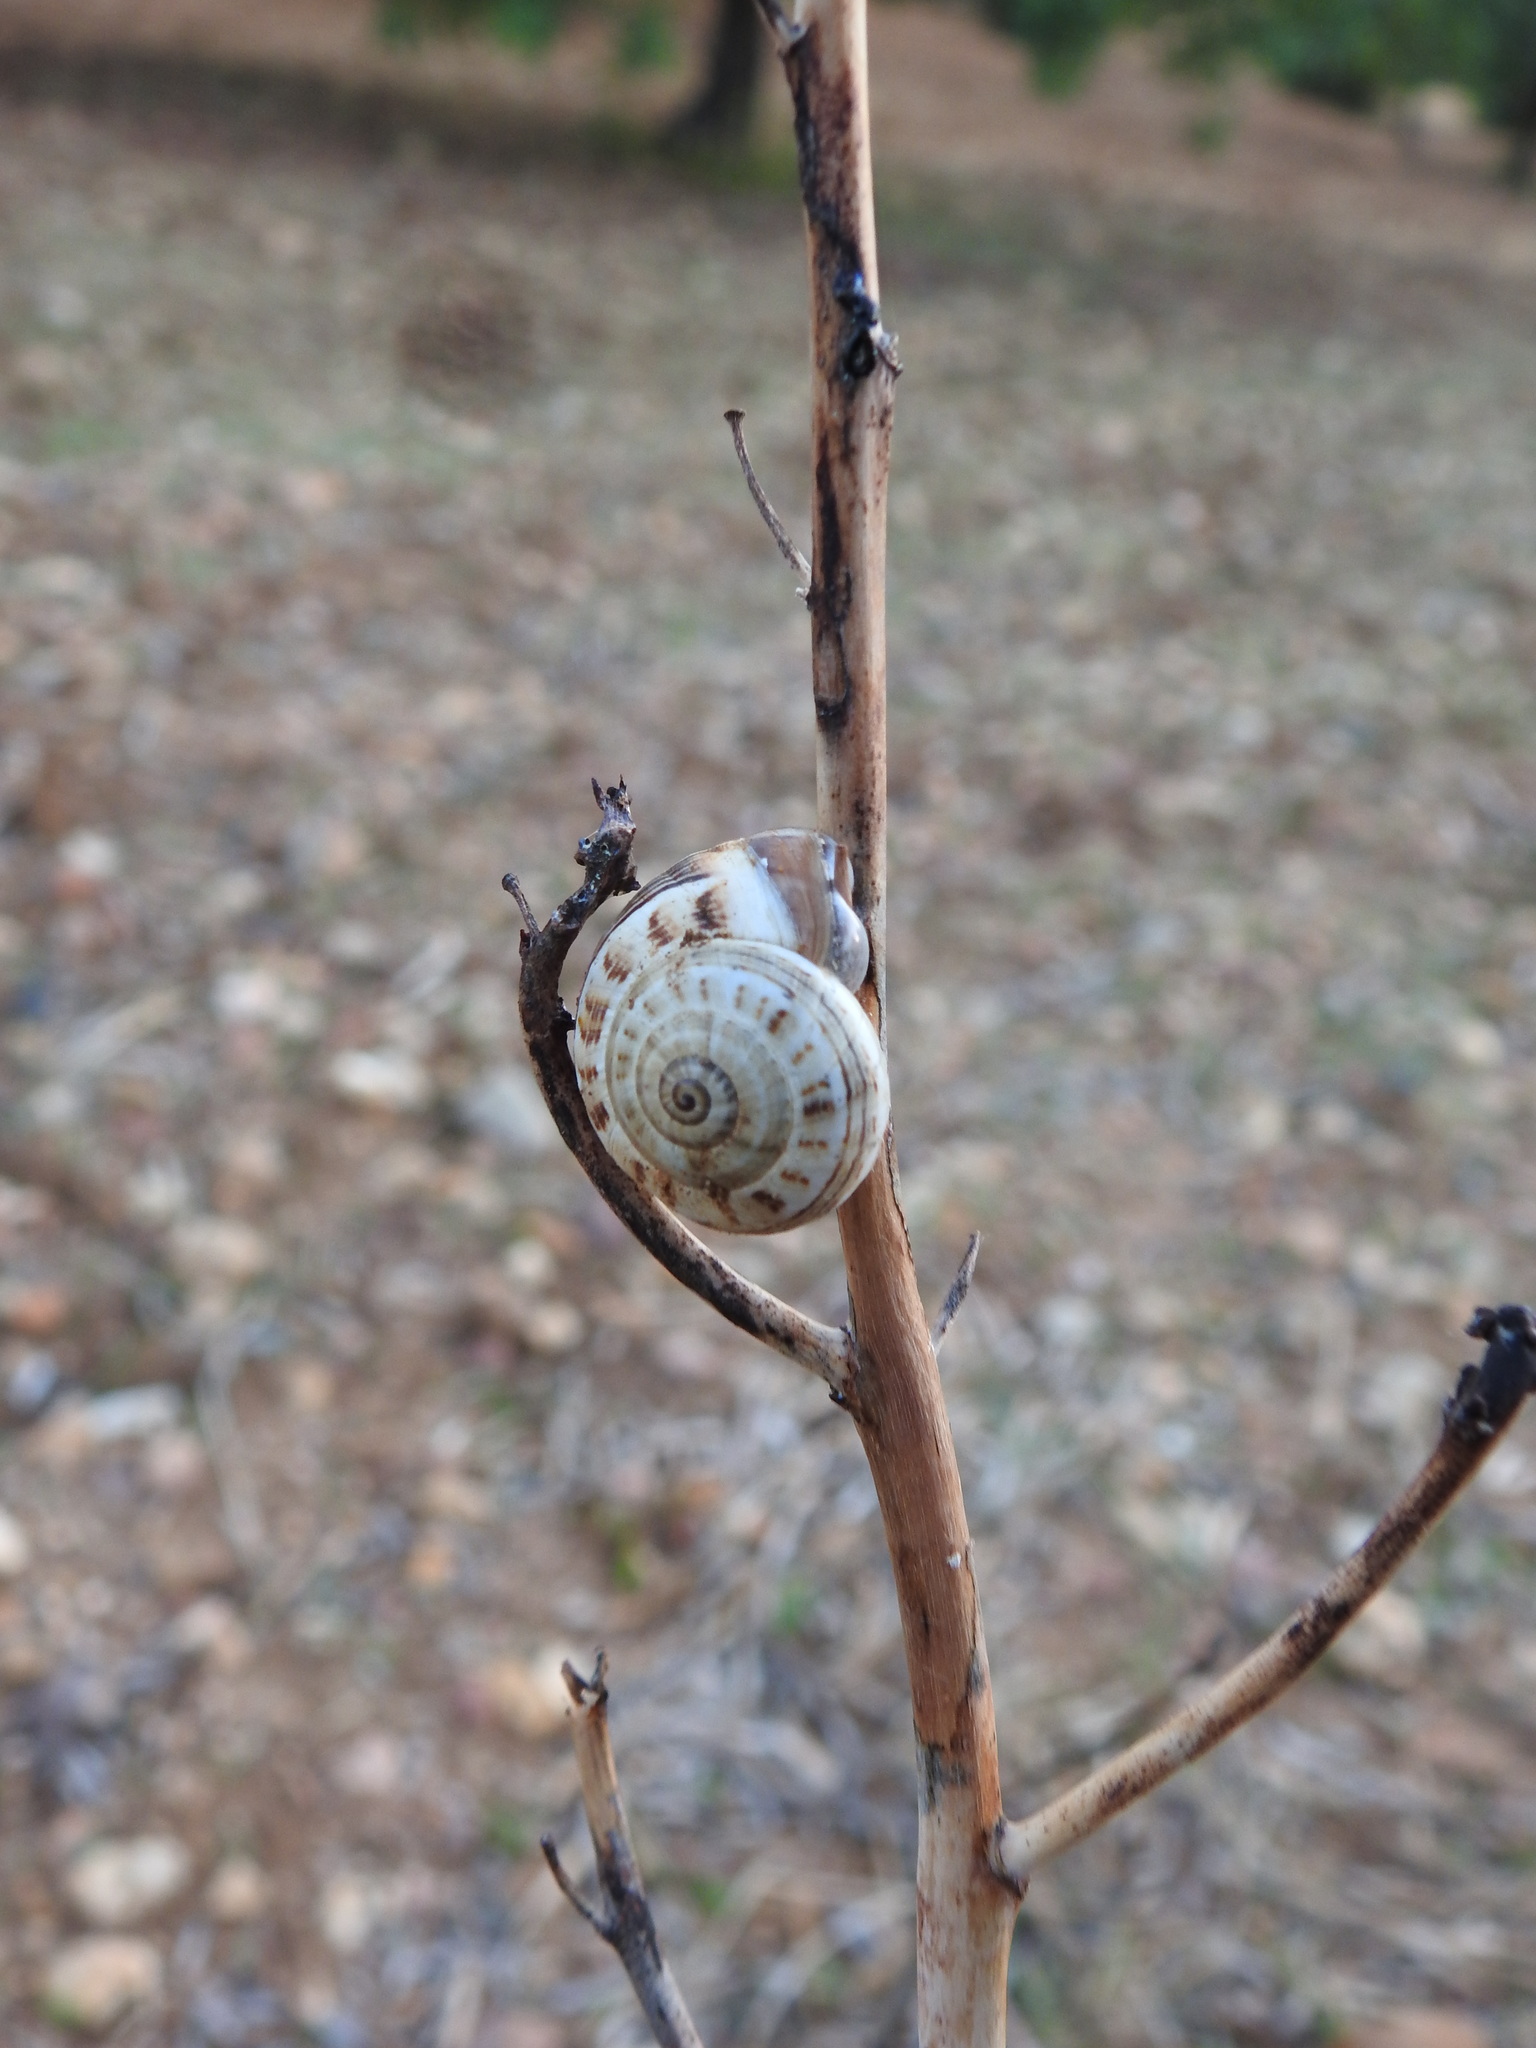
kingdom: Animalia
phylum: Mollusca
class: Gastropoda
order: Stylommatophora
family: Helicidae
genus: Theba
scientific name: Theba pisana
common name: White snail
